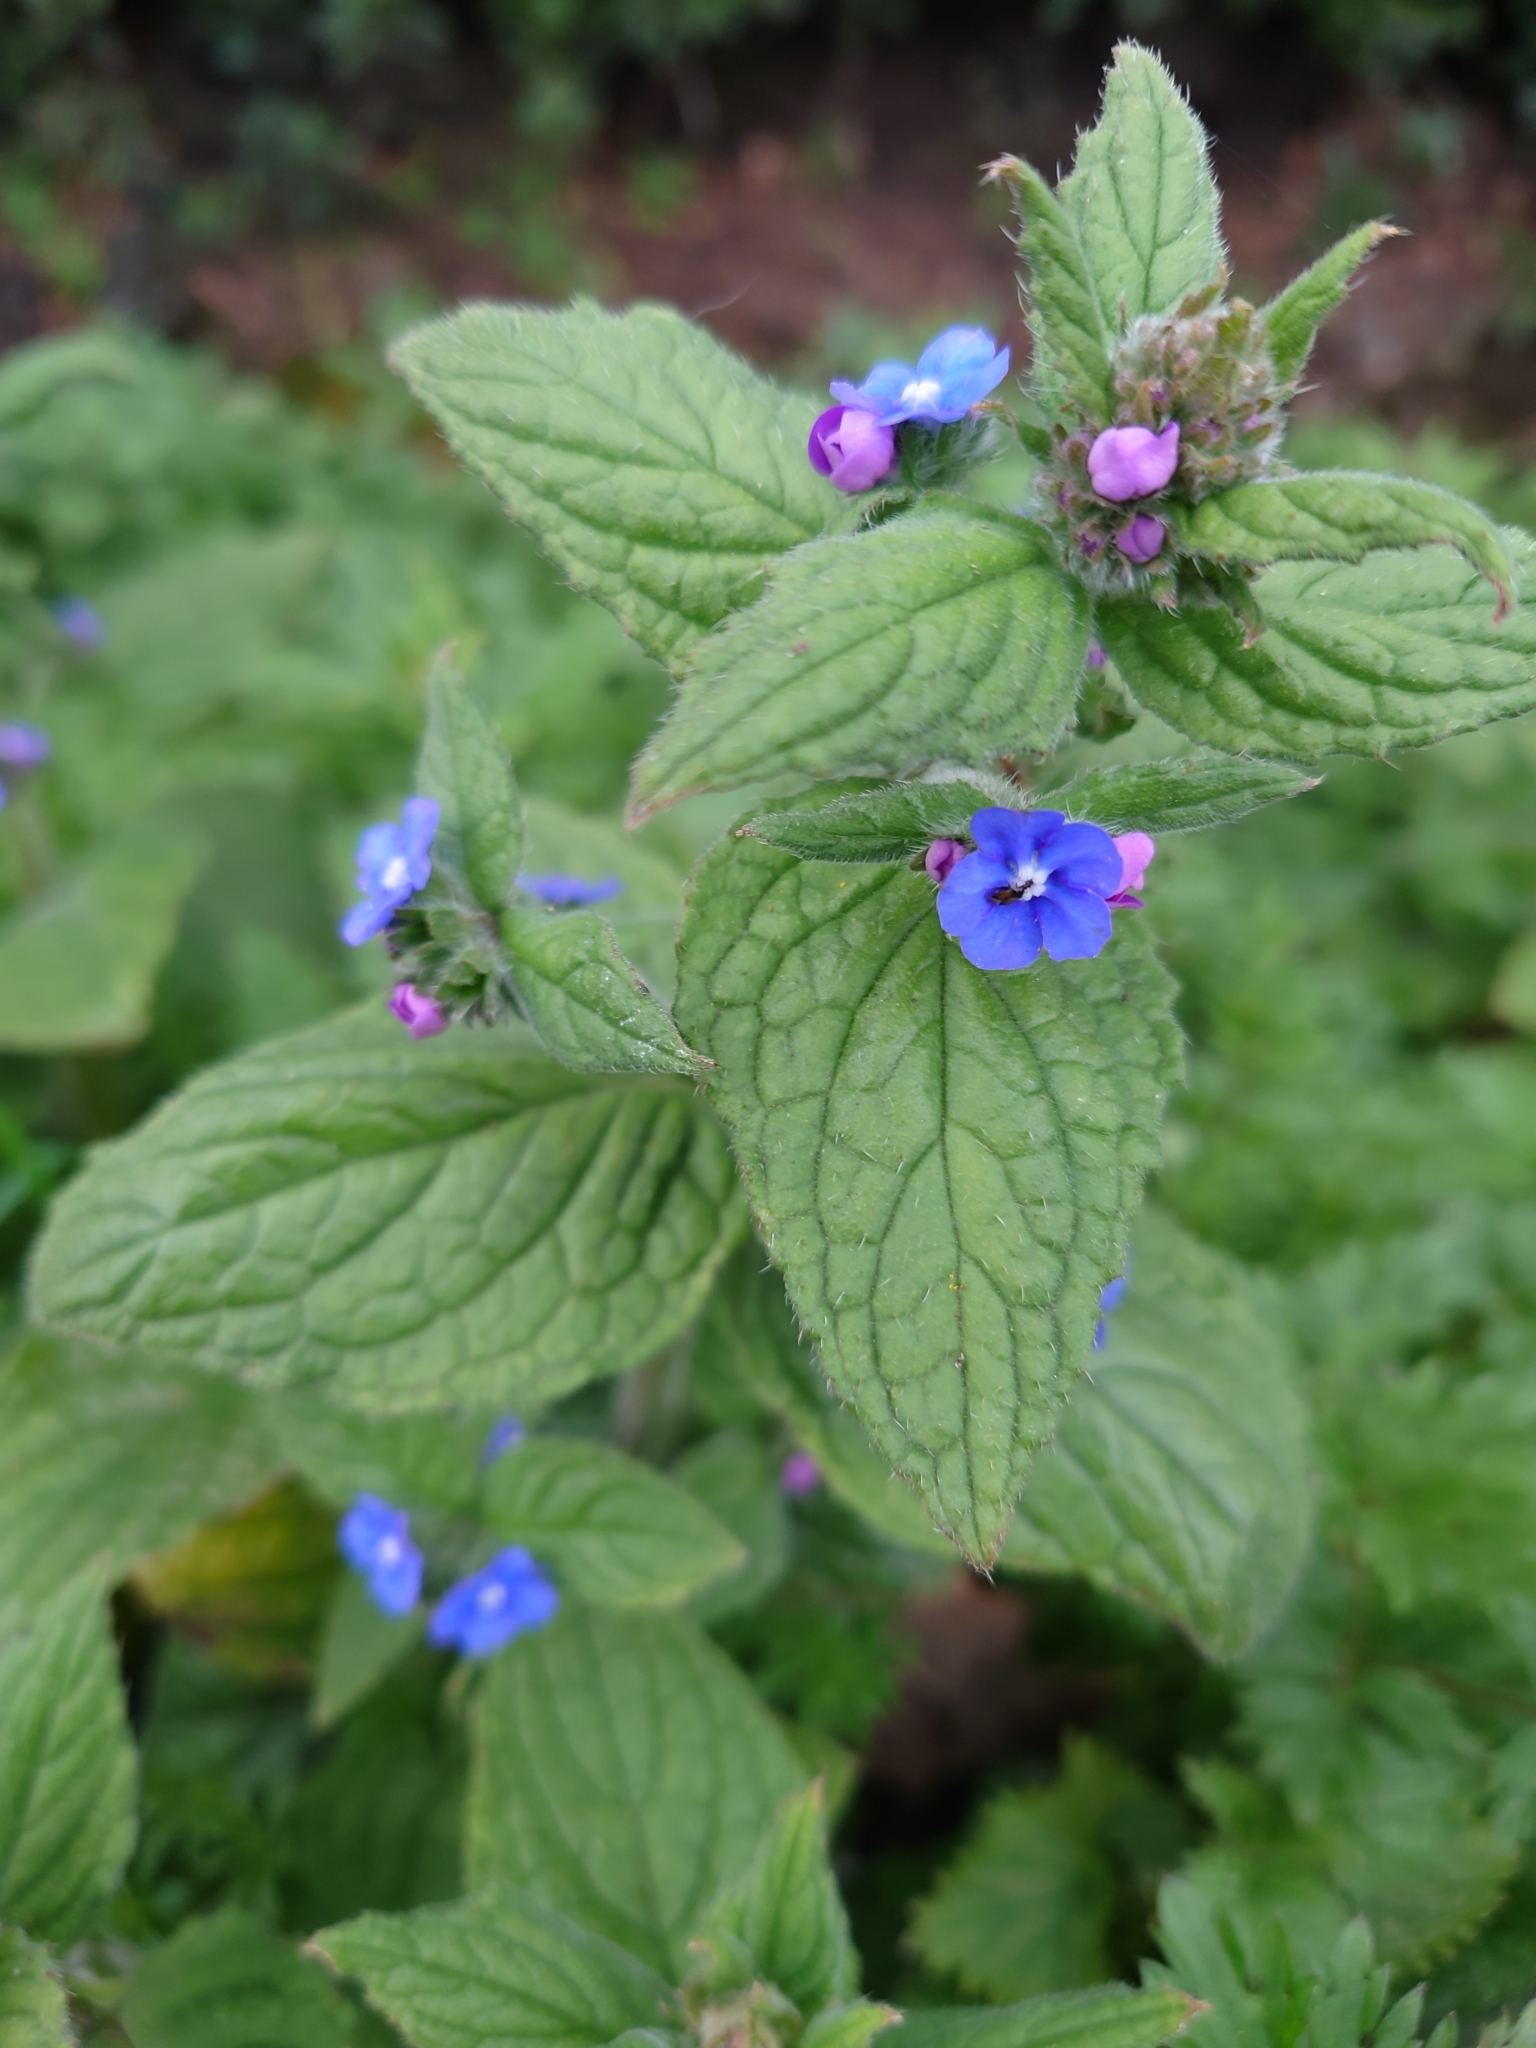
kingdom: Plantae
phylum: Tracheophyta
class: Magnoliopsida
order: Boraginales
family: Boraginaceae
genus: Pentaglottis
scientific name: Pentaglottis sempervirens
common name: Green alkanet
